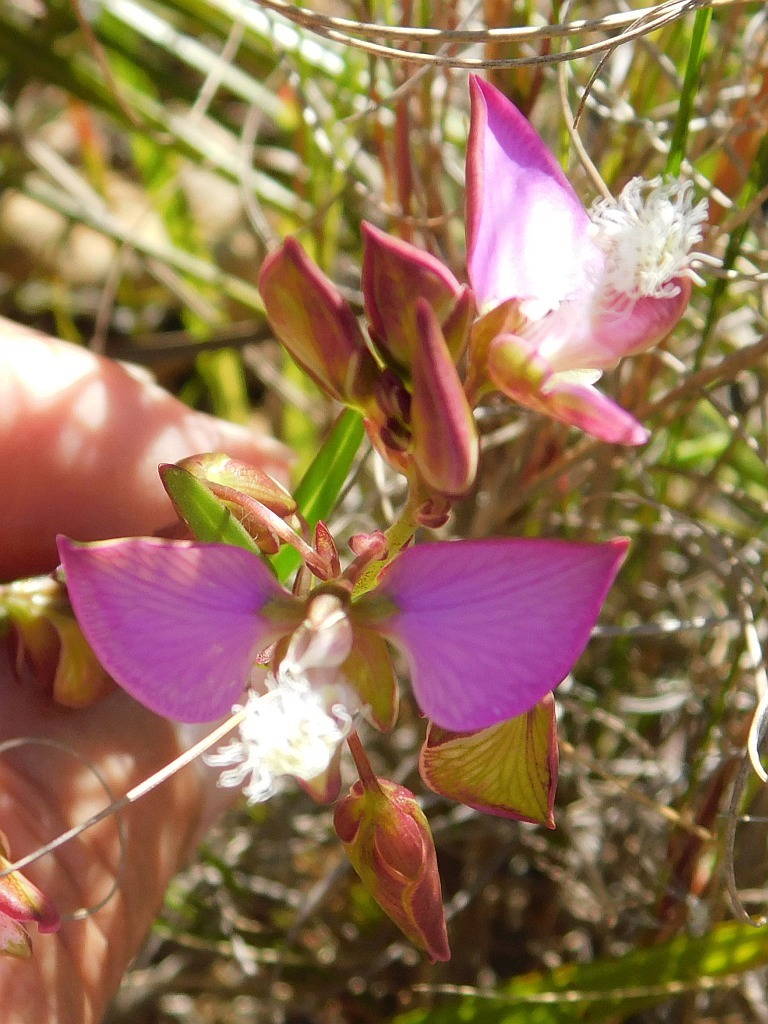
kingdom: Plantae
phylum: Tracheophyta
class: Magnoliopsida
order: Fabales
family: Polygalaceae
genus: Polygala
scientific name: Polygala bracteolata
